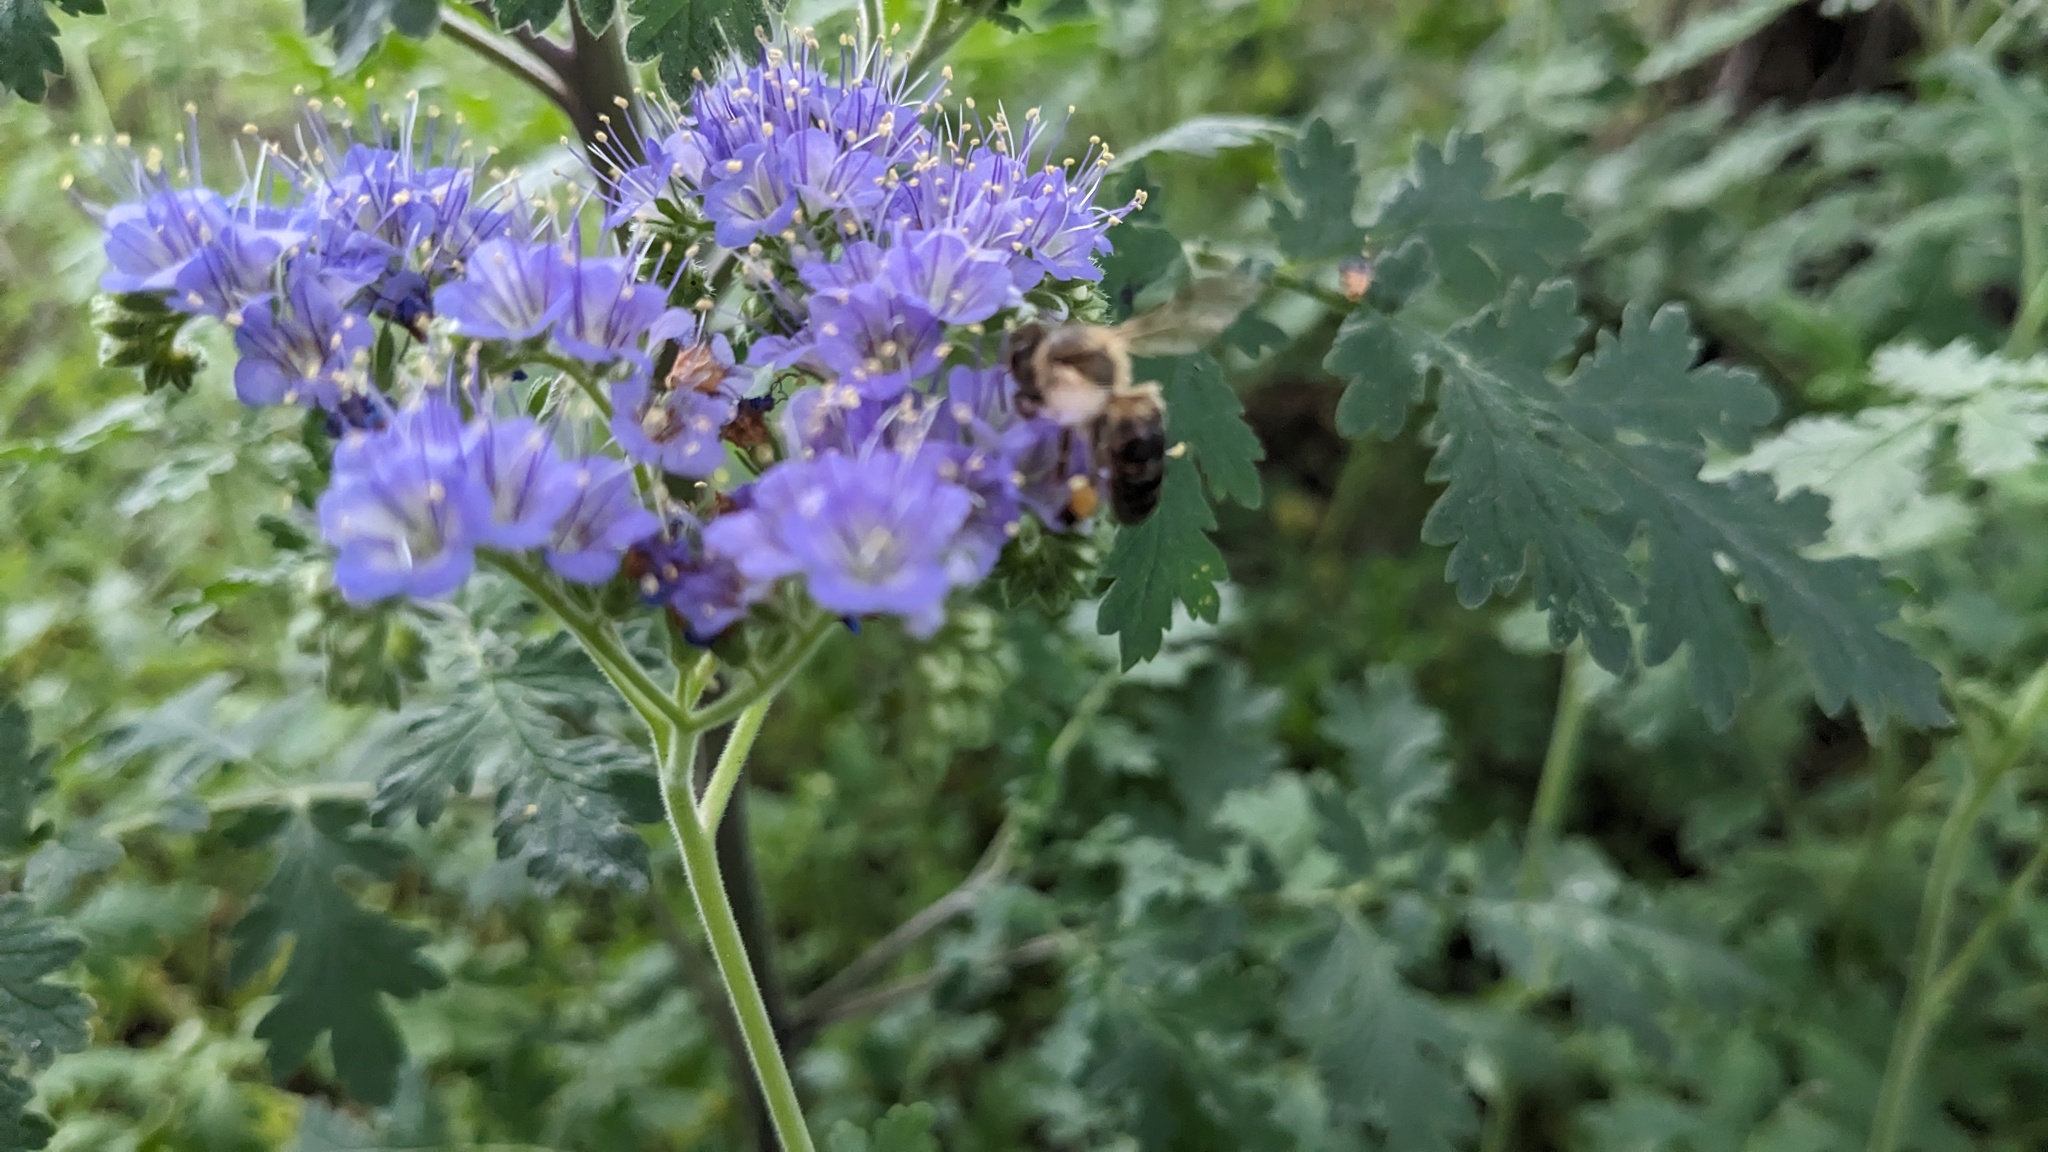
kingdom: Animalia
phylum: Arthropoda
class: Insecta
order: Hymenoptera
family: Apidae
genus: Apis
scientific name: Apis mellifera
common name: Honey bee
